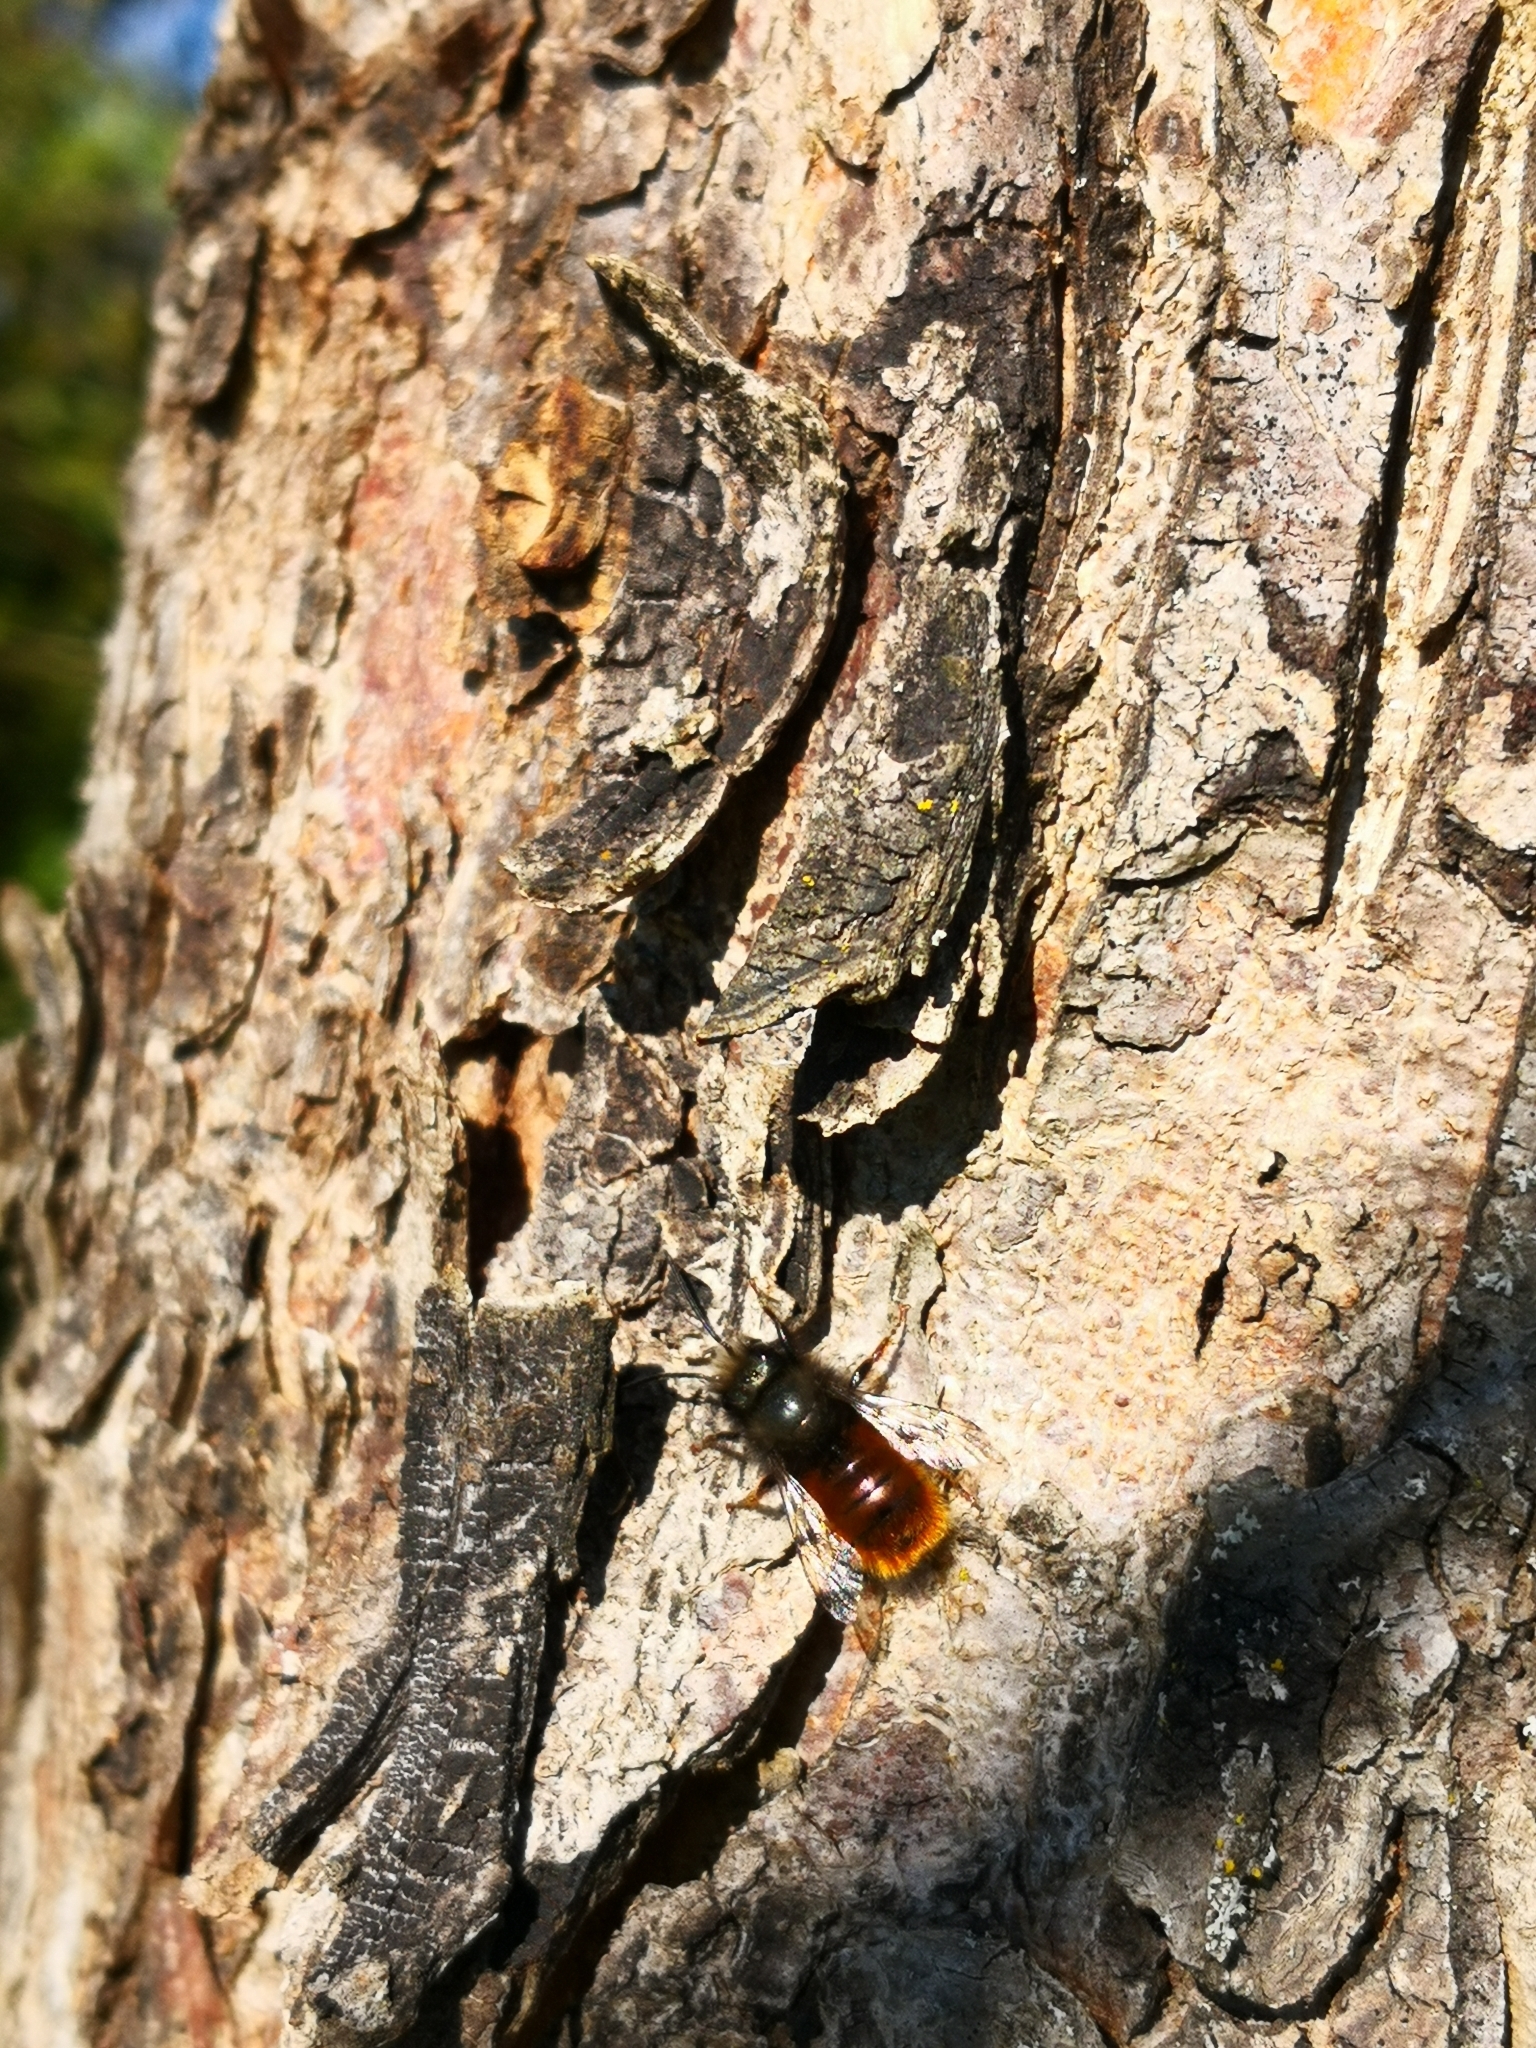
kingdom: Animalia
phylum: Arthropoda
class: Insecta
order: Hymenoptera
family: Megachilidae
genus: Osmia
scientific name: Osmia cornuta
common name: Mason bee
